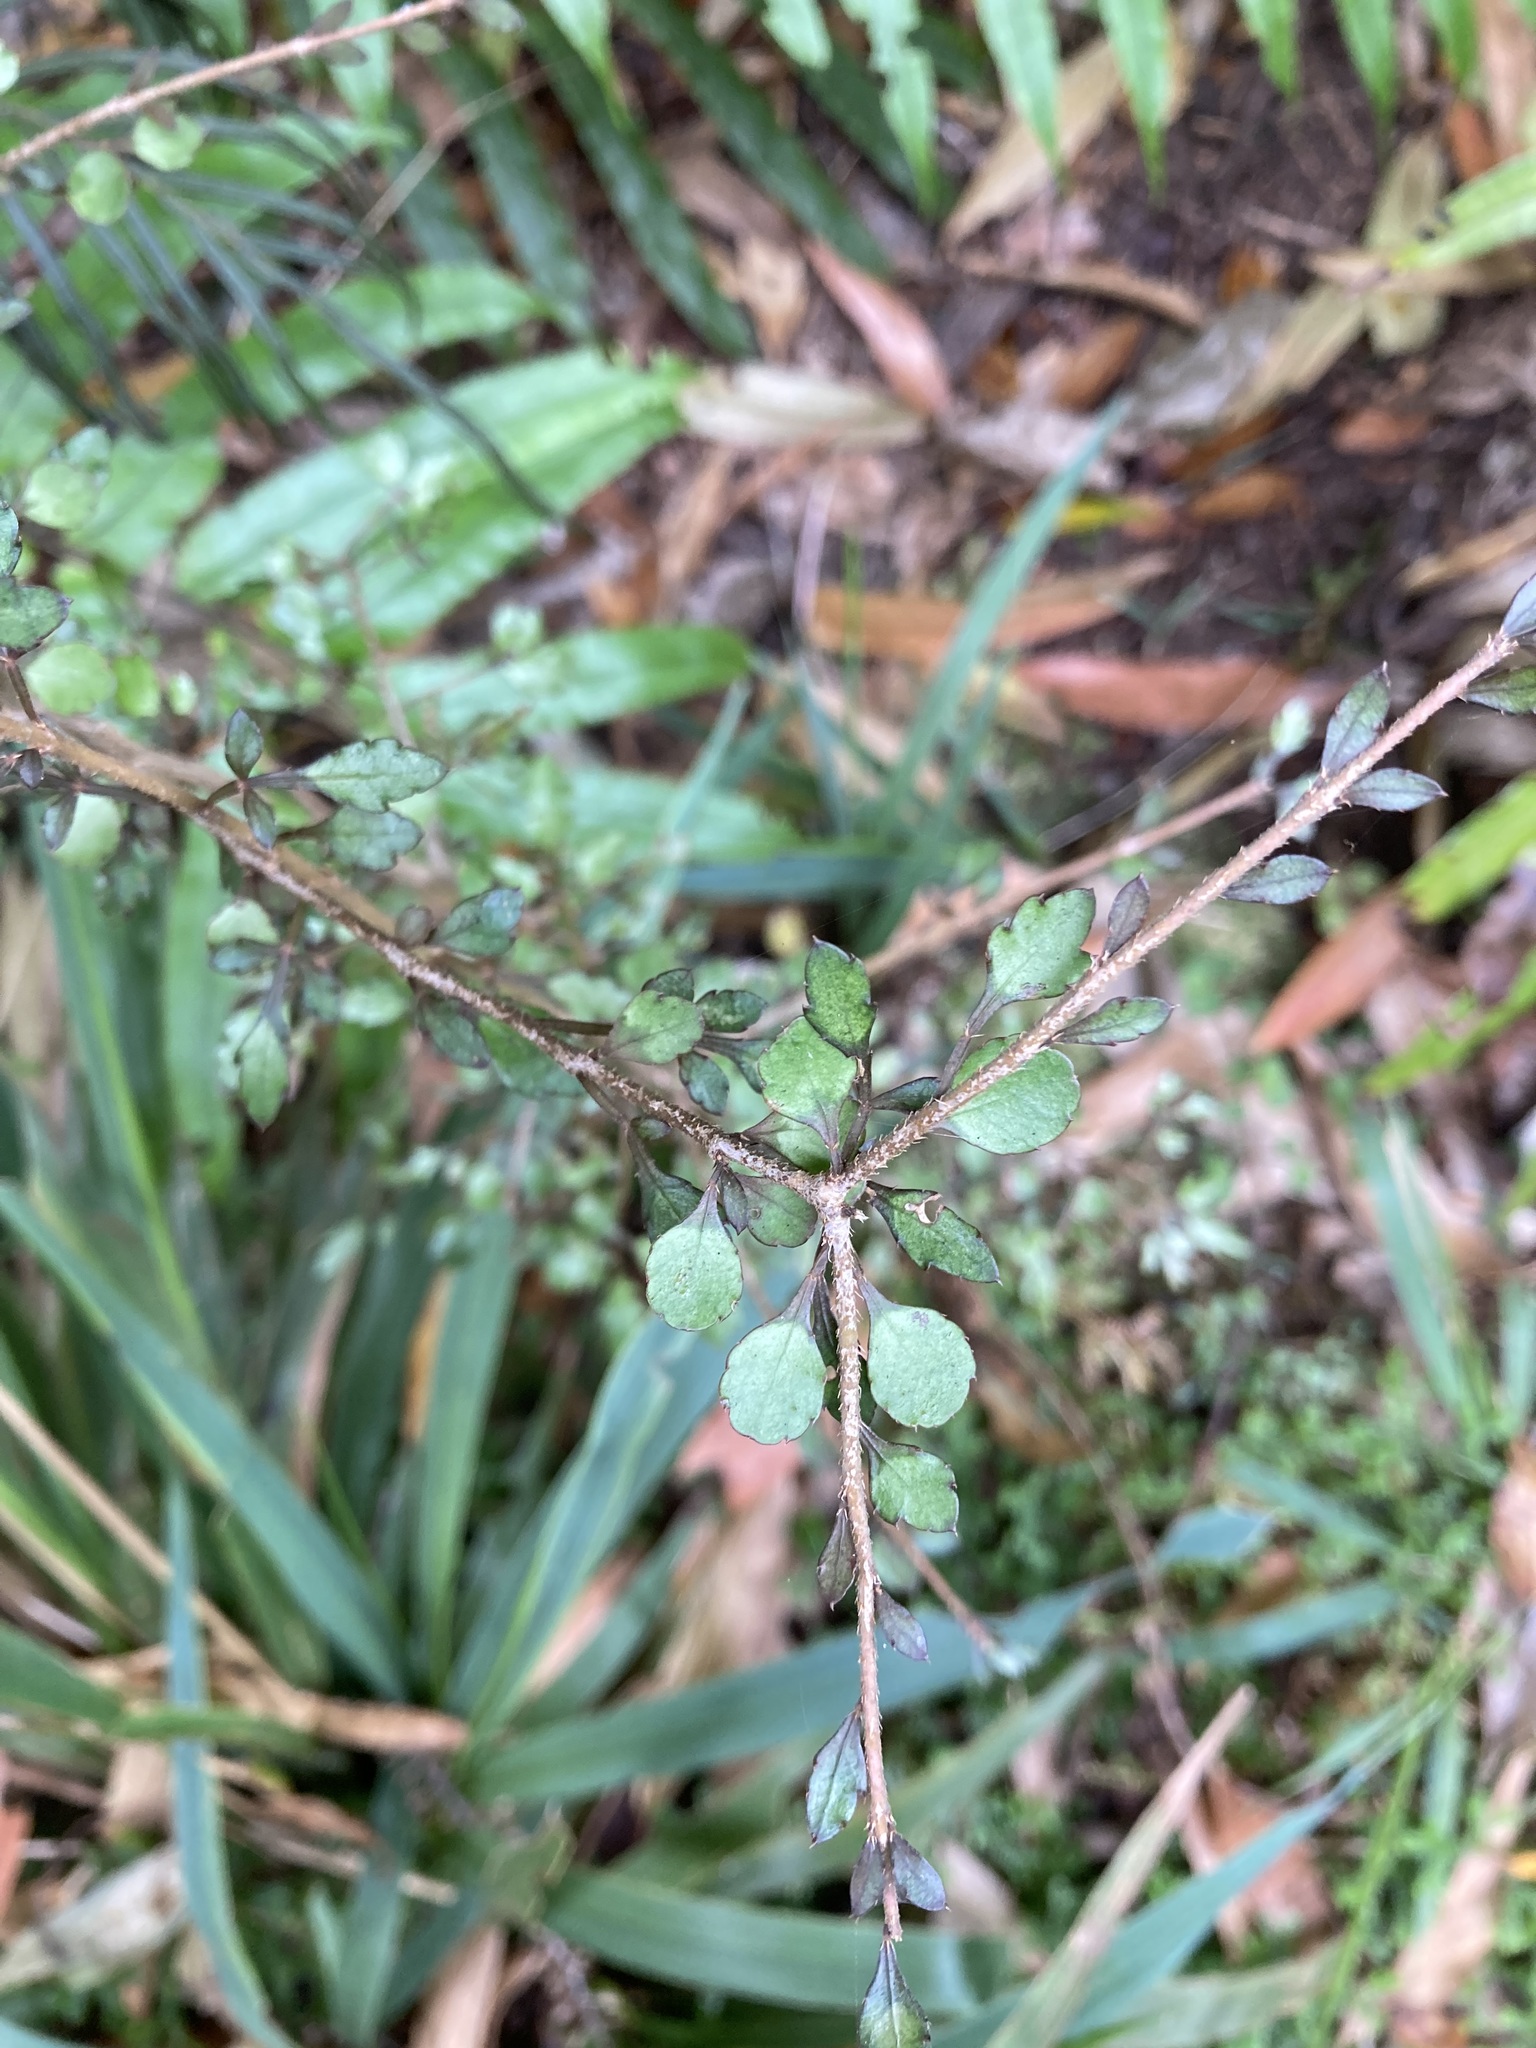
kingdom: Plantae
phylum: Tracheophyta
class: Magnoliopsida
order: Apiales
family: Araliaceae
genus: Raukaua
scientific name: Raukaua anomalus
